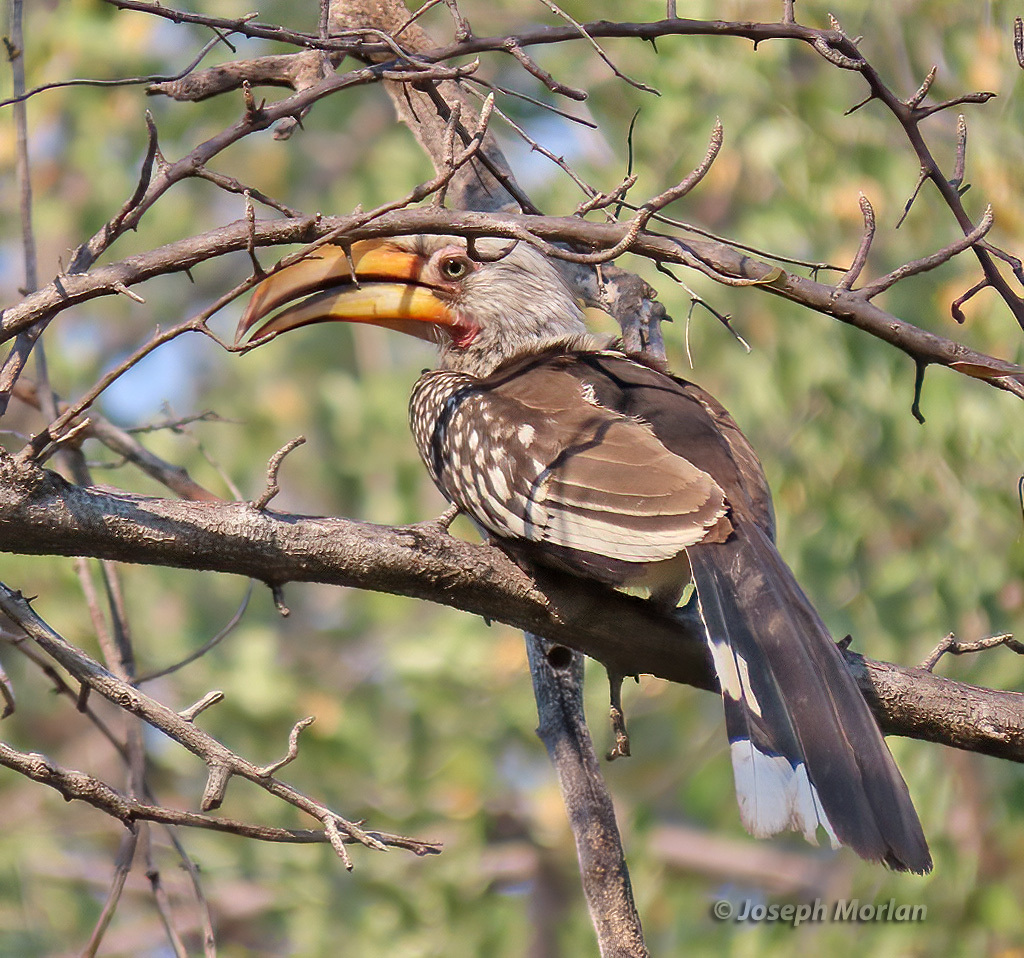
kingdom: Animalia
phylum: Chordata
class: Aves
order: Bucerotiformes
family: Bucerotidae
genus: Tockus
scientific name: Tockus leucomelas
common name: Southern yellow-billed hornbill
